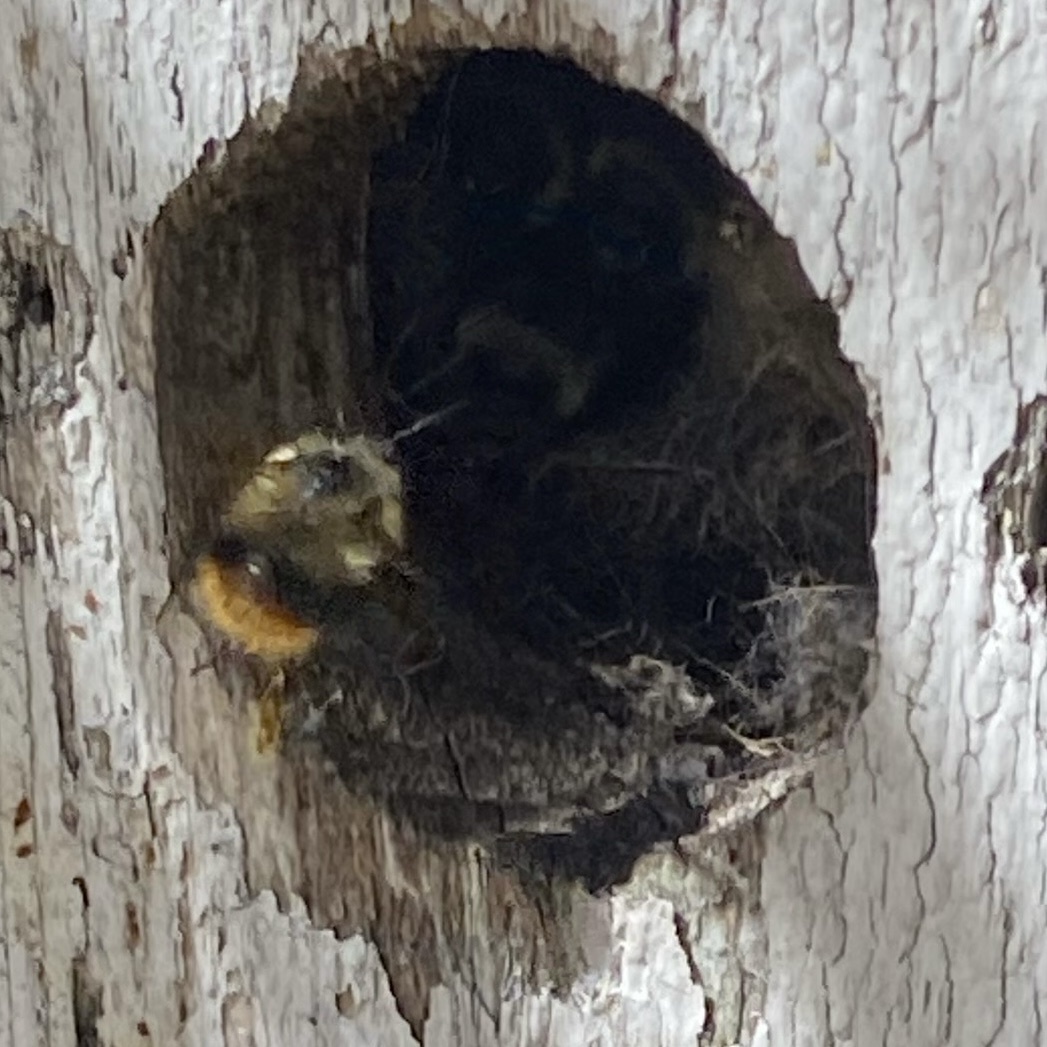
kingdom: Animalia
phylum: Arthropoda
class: Insecta
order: Hymenoptera
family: Apidae
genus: Bombus
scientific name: Bombus mixtus
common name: Fuzzy-horned bumble bee
